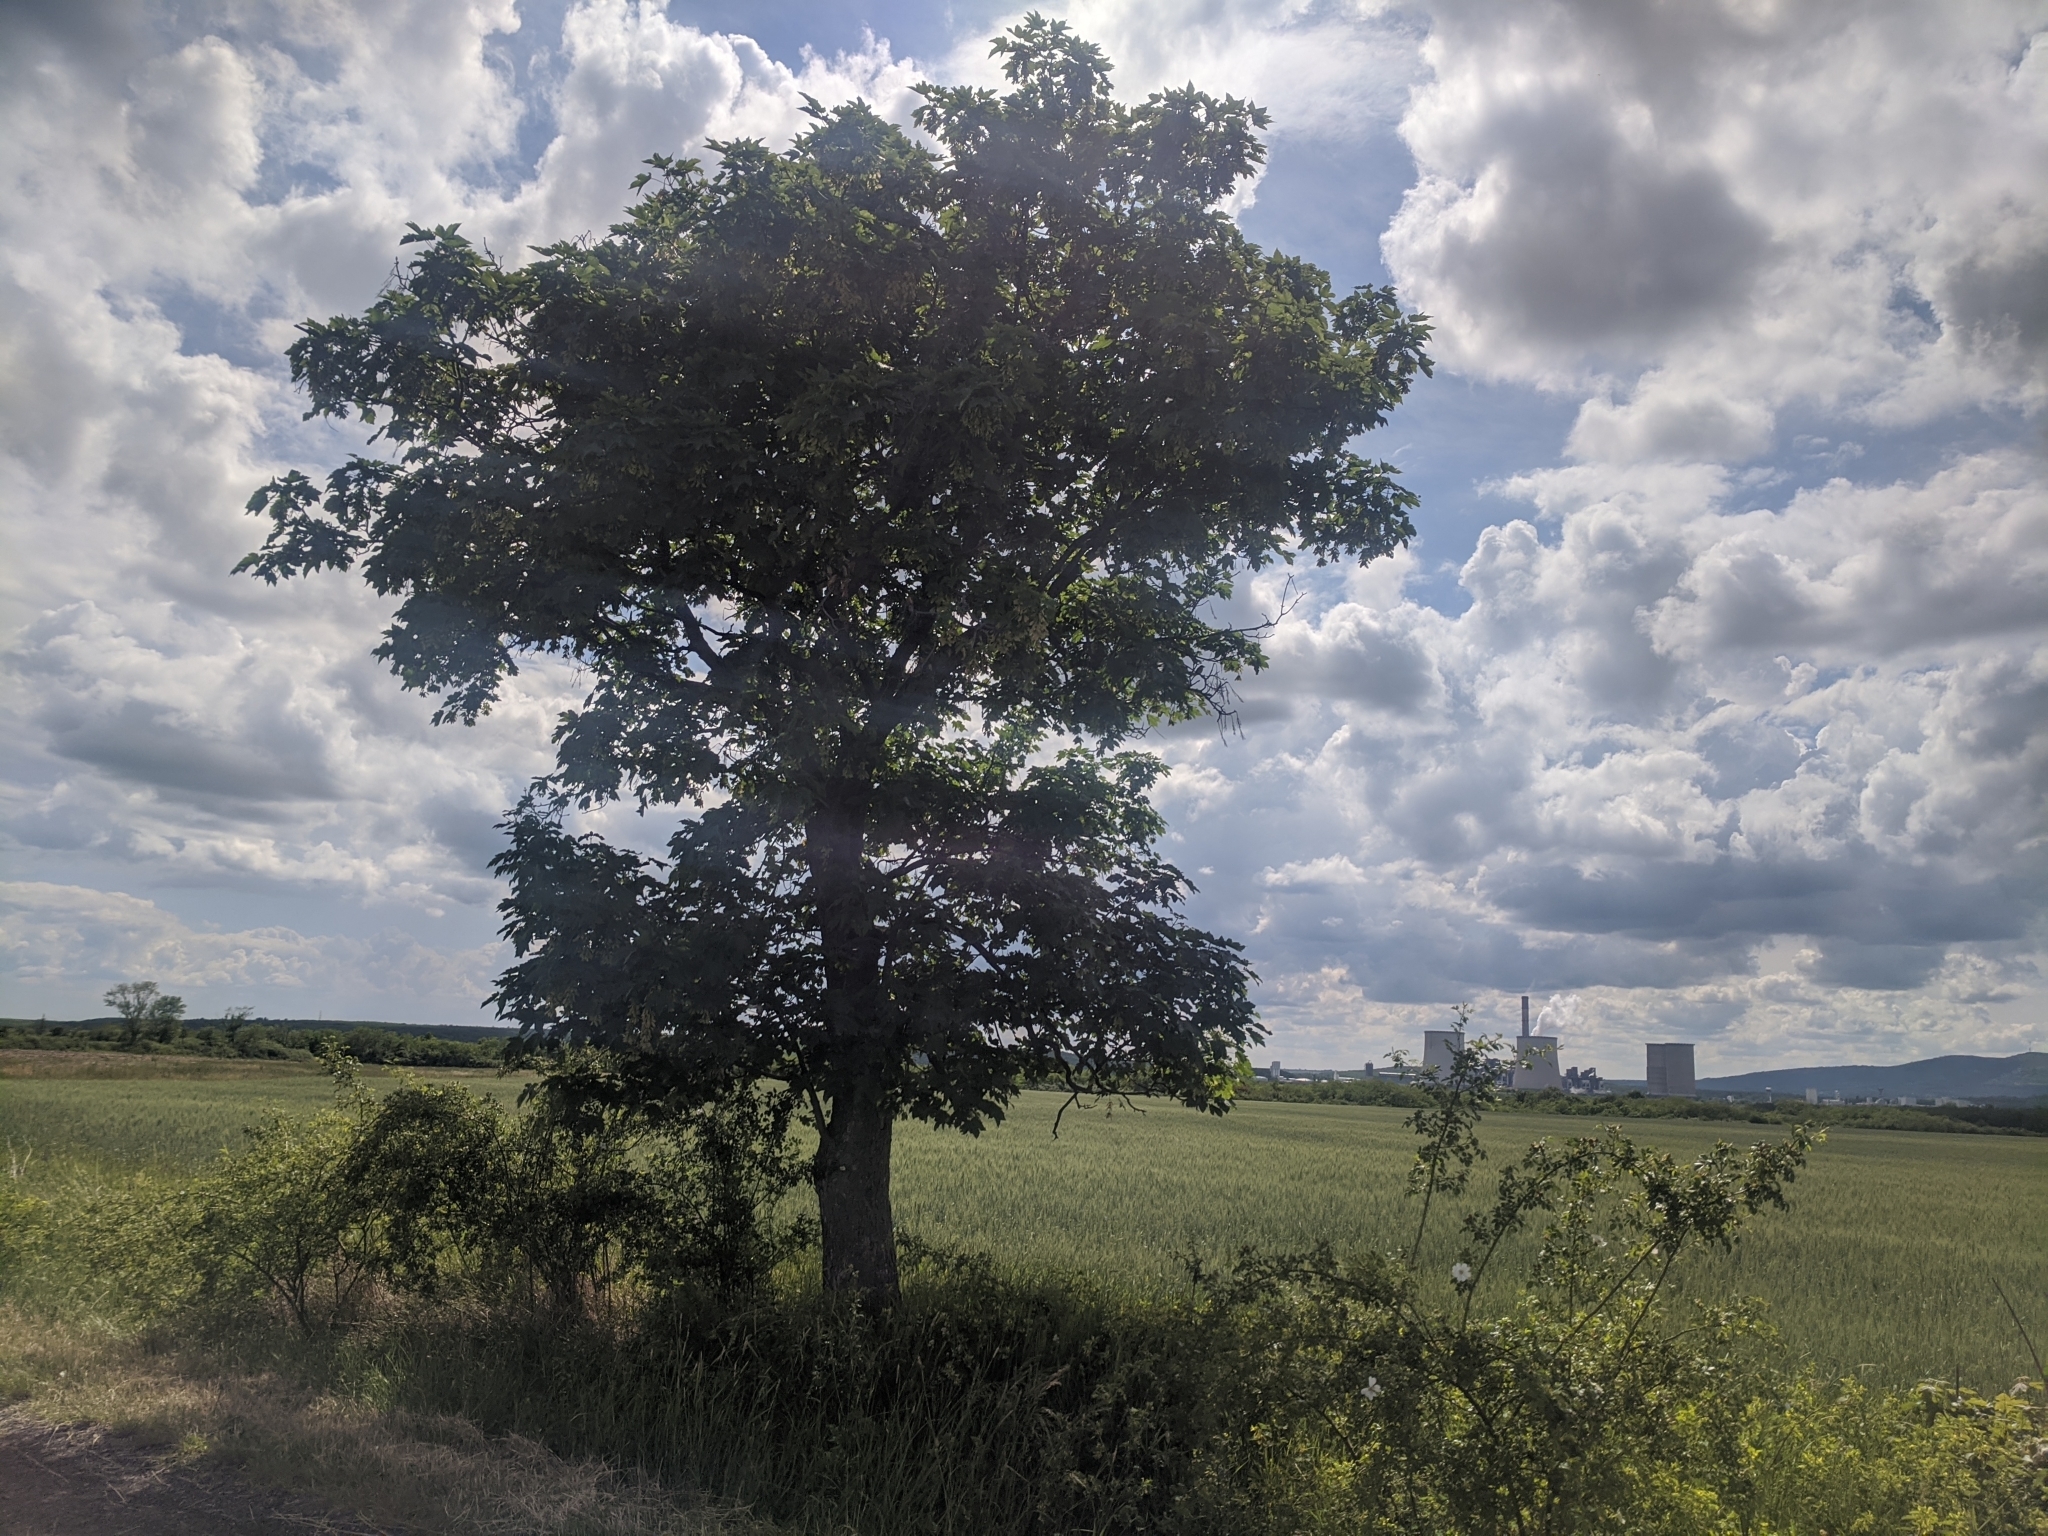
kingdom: Plantae
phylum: Tracheophyta
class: Magnoliopsida
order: Sapindales
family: Sapindaceae
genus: Acer
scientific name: Acer pseudoplatanus
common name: Sycamore
